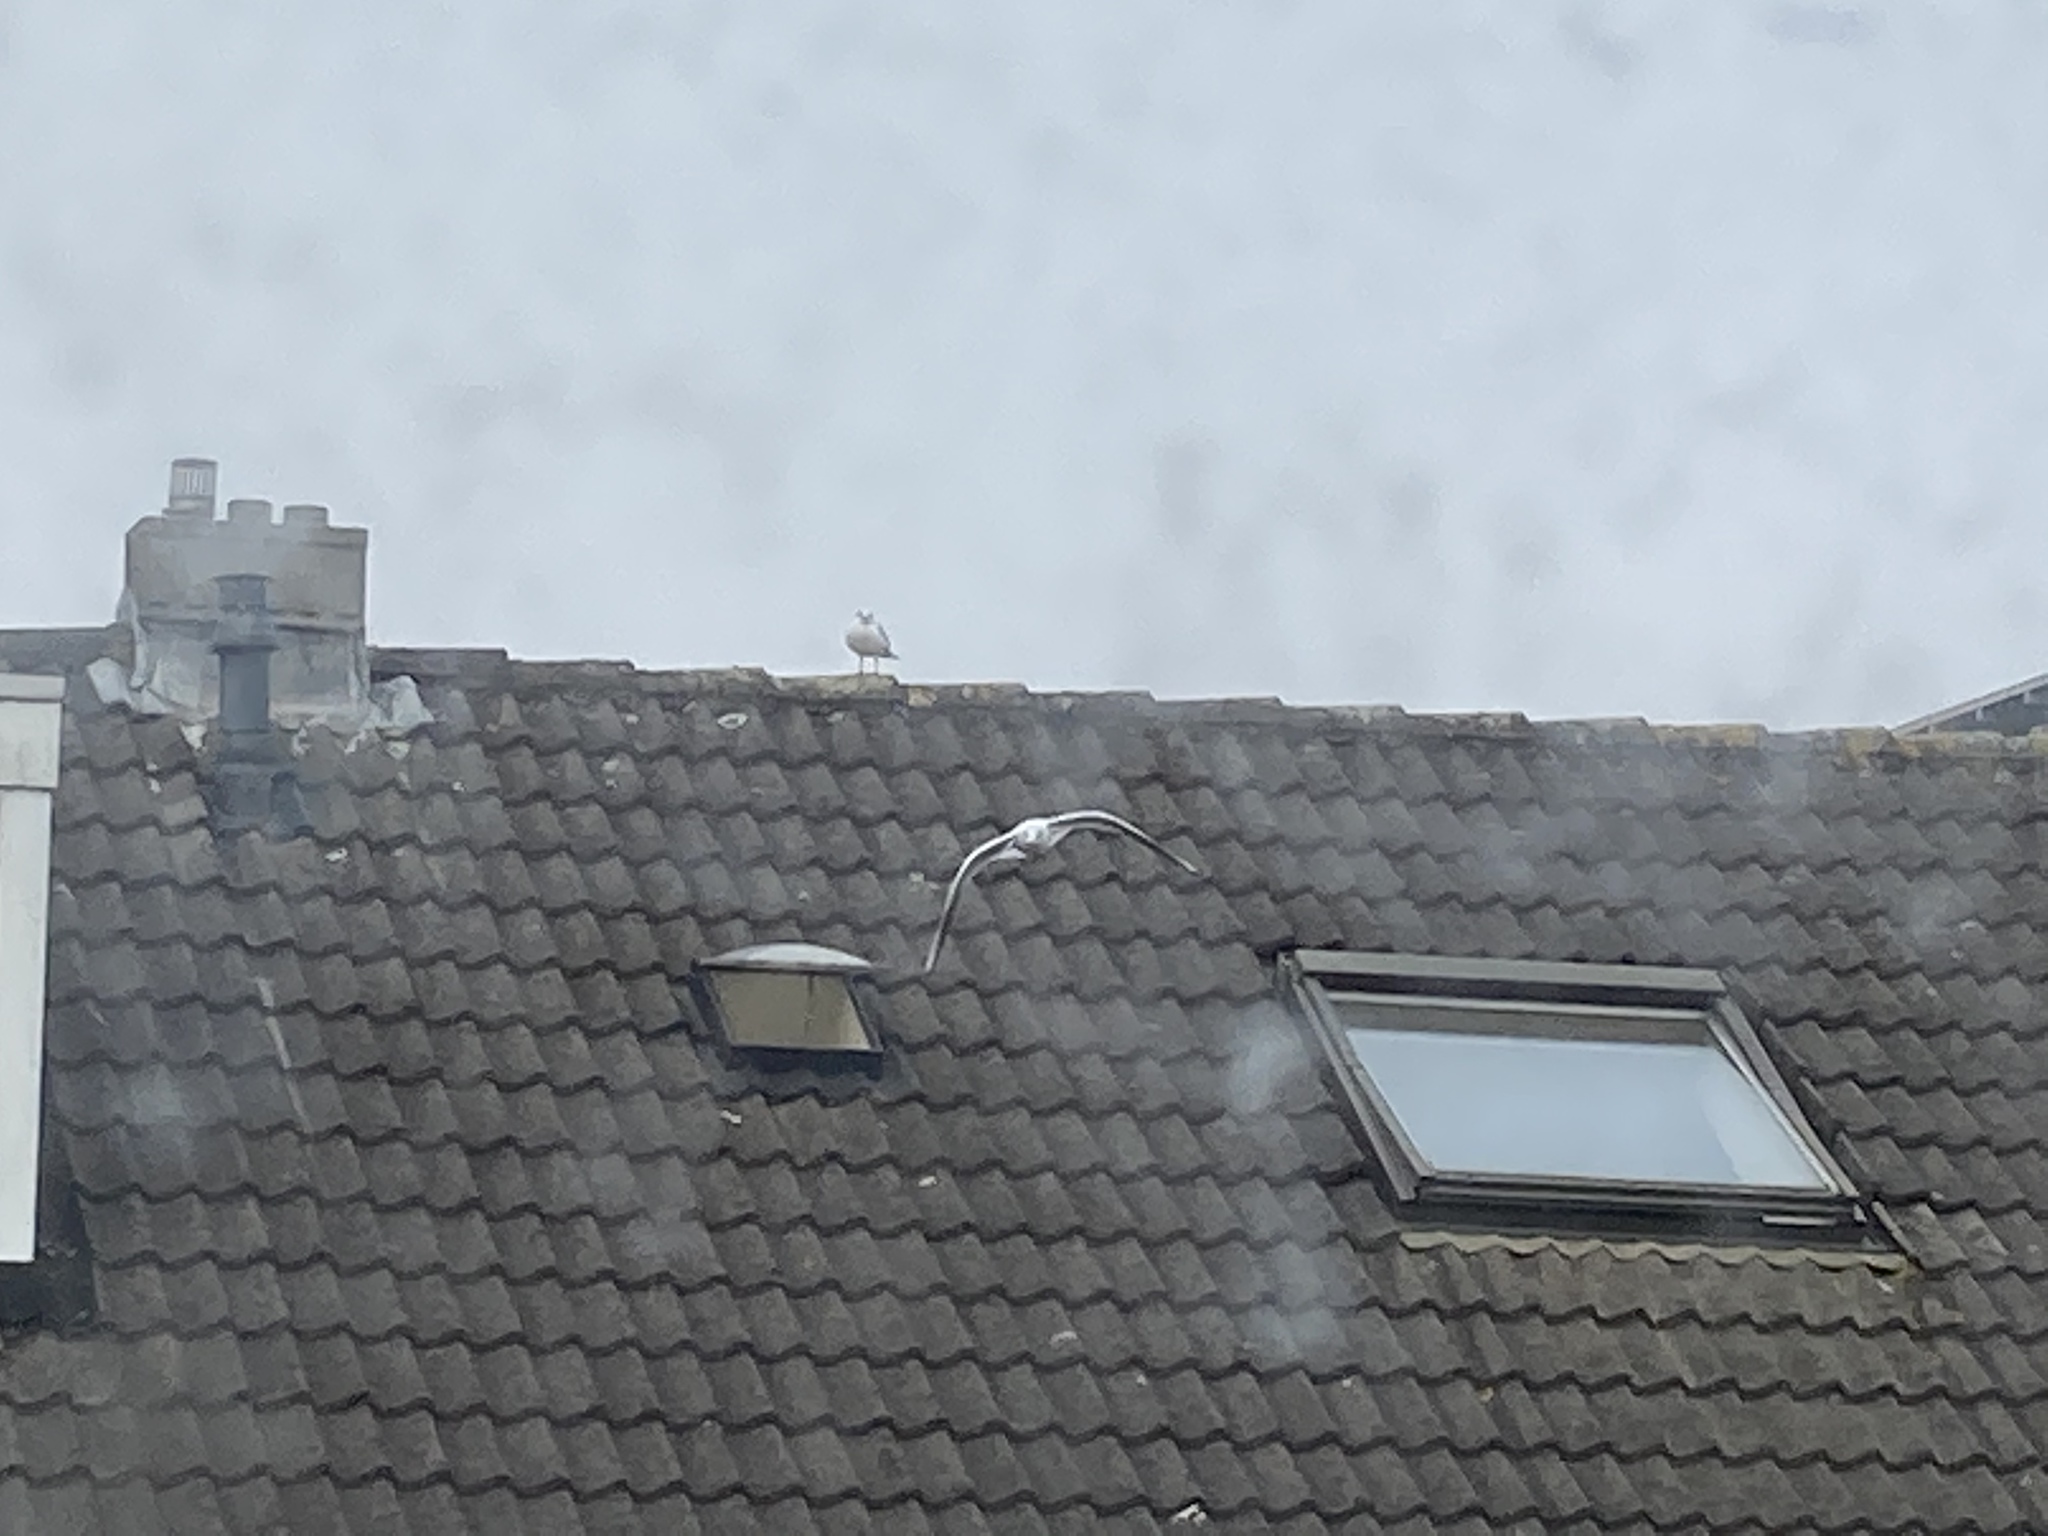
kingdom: Animalia
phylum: Chordata
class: Aves
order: Charadriiformes
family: Laridae
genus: Chroicocephalus
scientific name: Chroicocephalus ridibundus
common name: Black-headed gull
